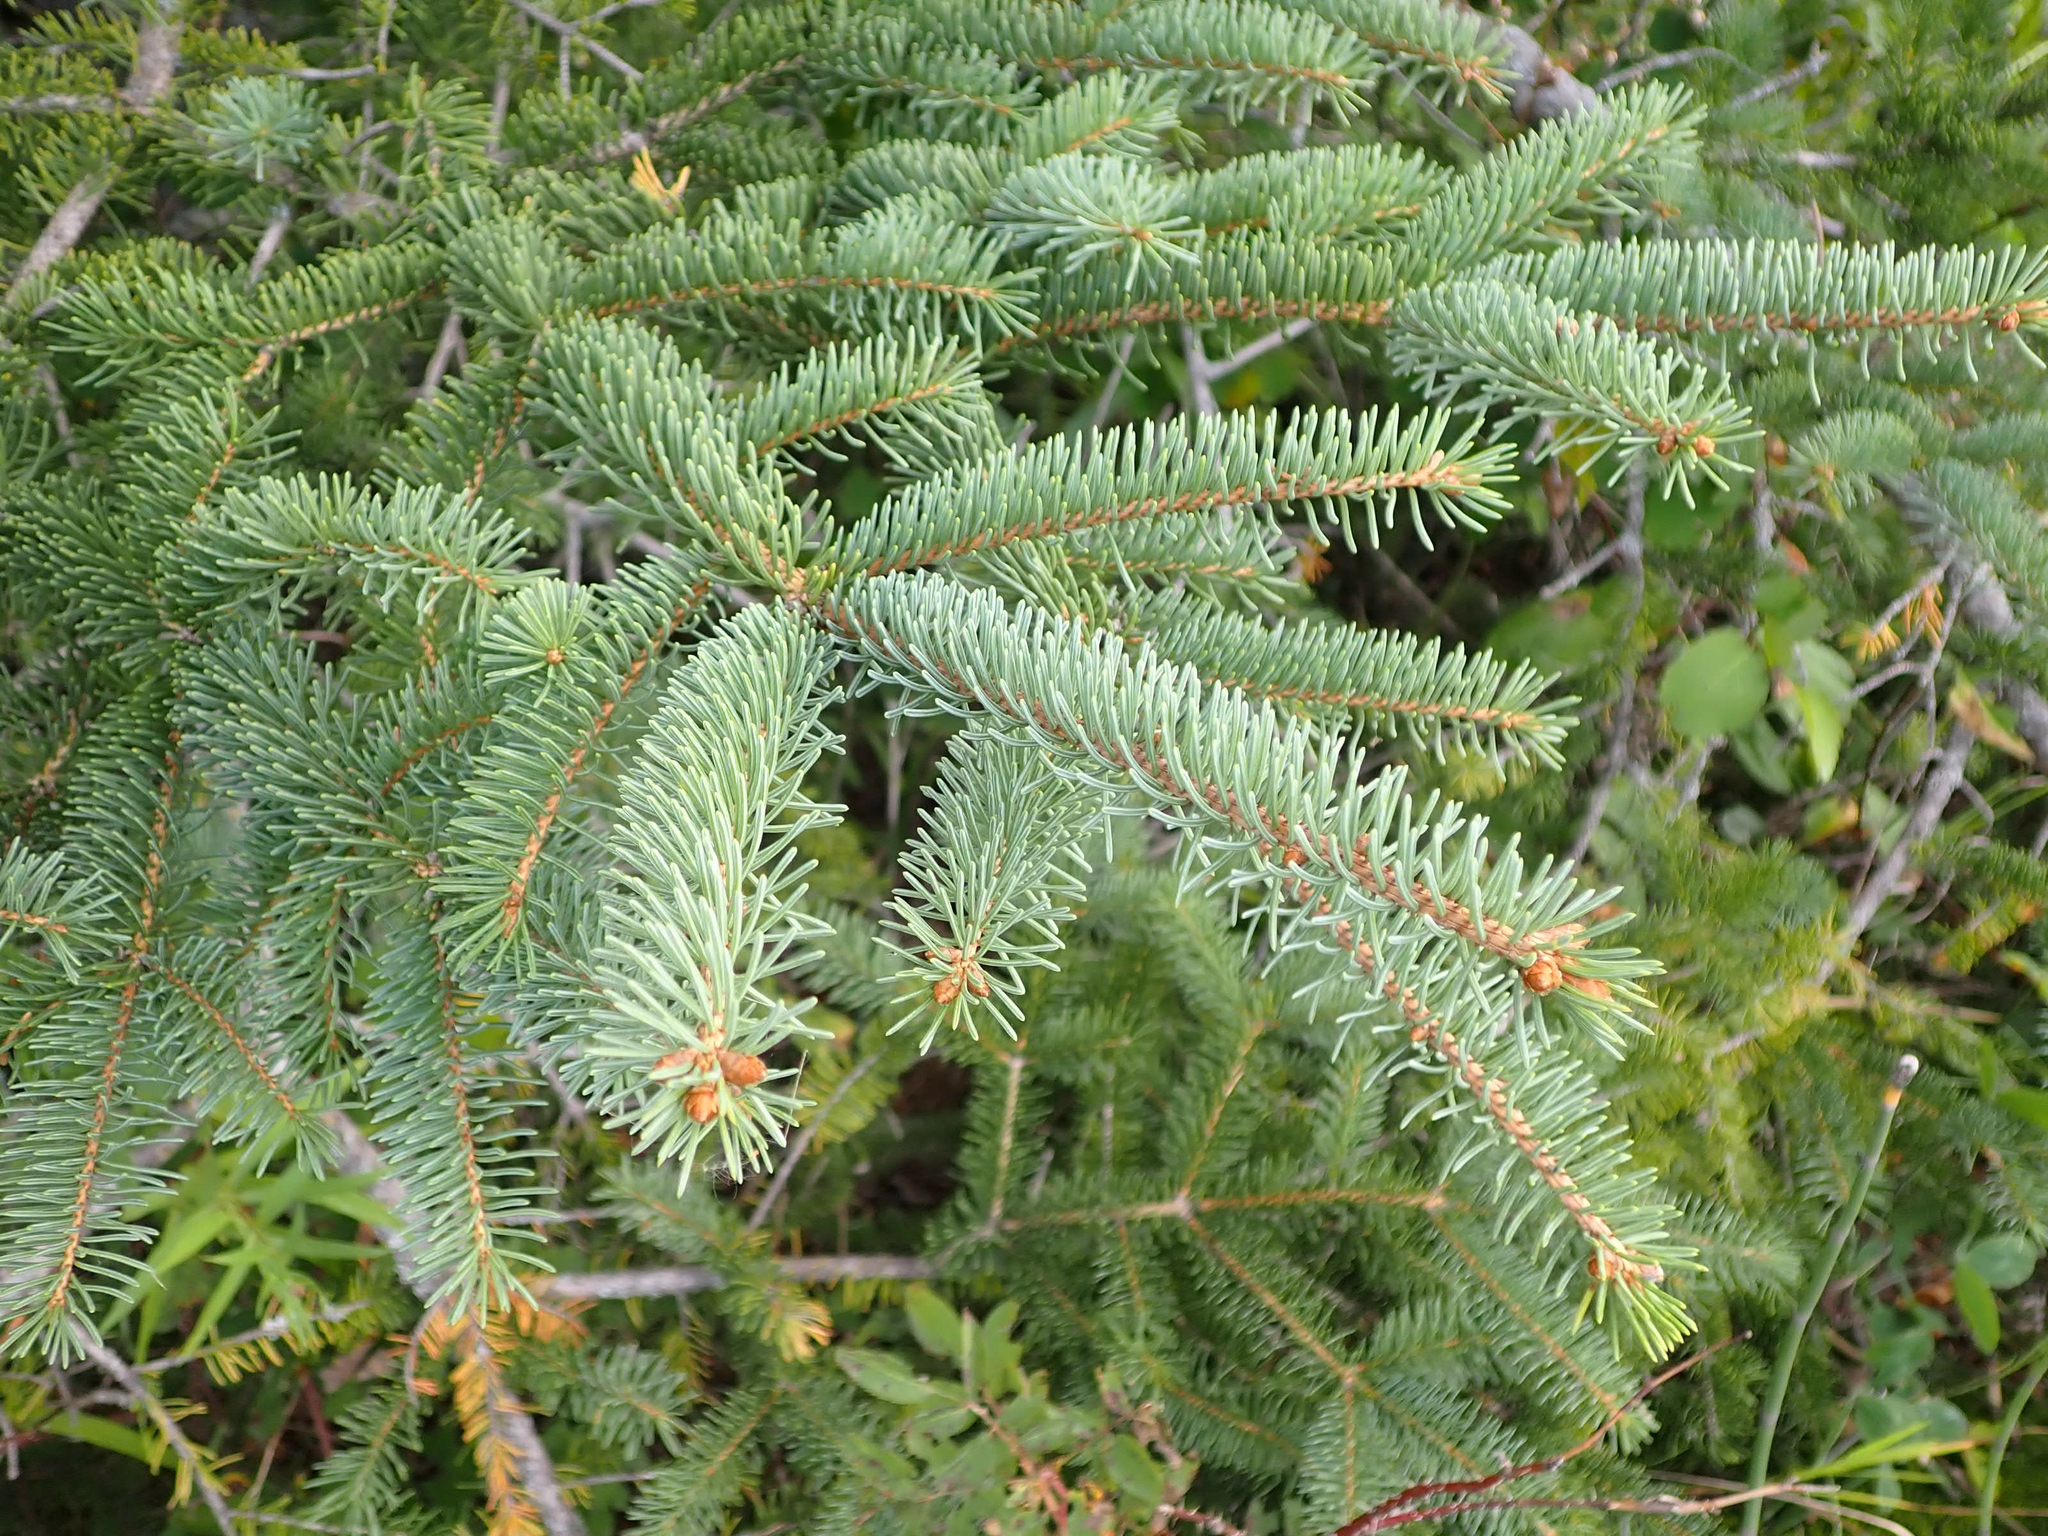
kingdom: Plantae
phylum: Tracheophyta
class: Pinopsida
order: Pinales
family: Pinaceae
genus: Picea
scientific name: Picea glauca
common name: White spruce
